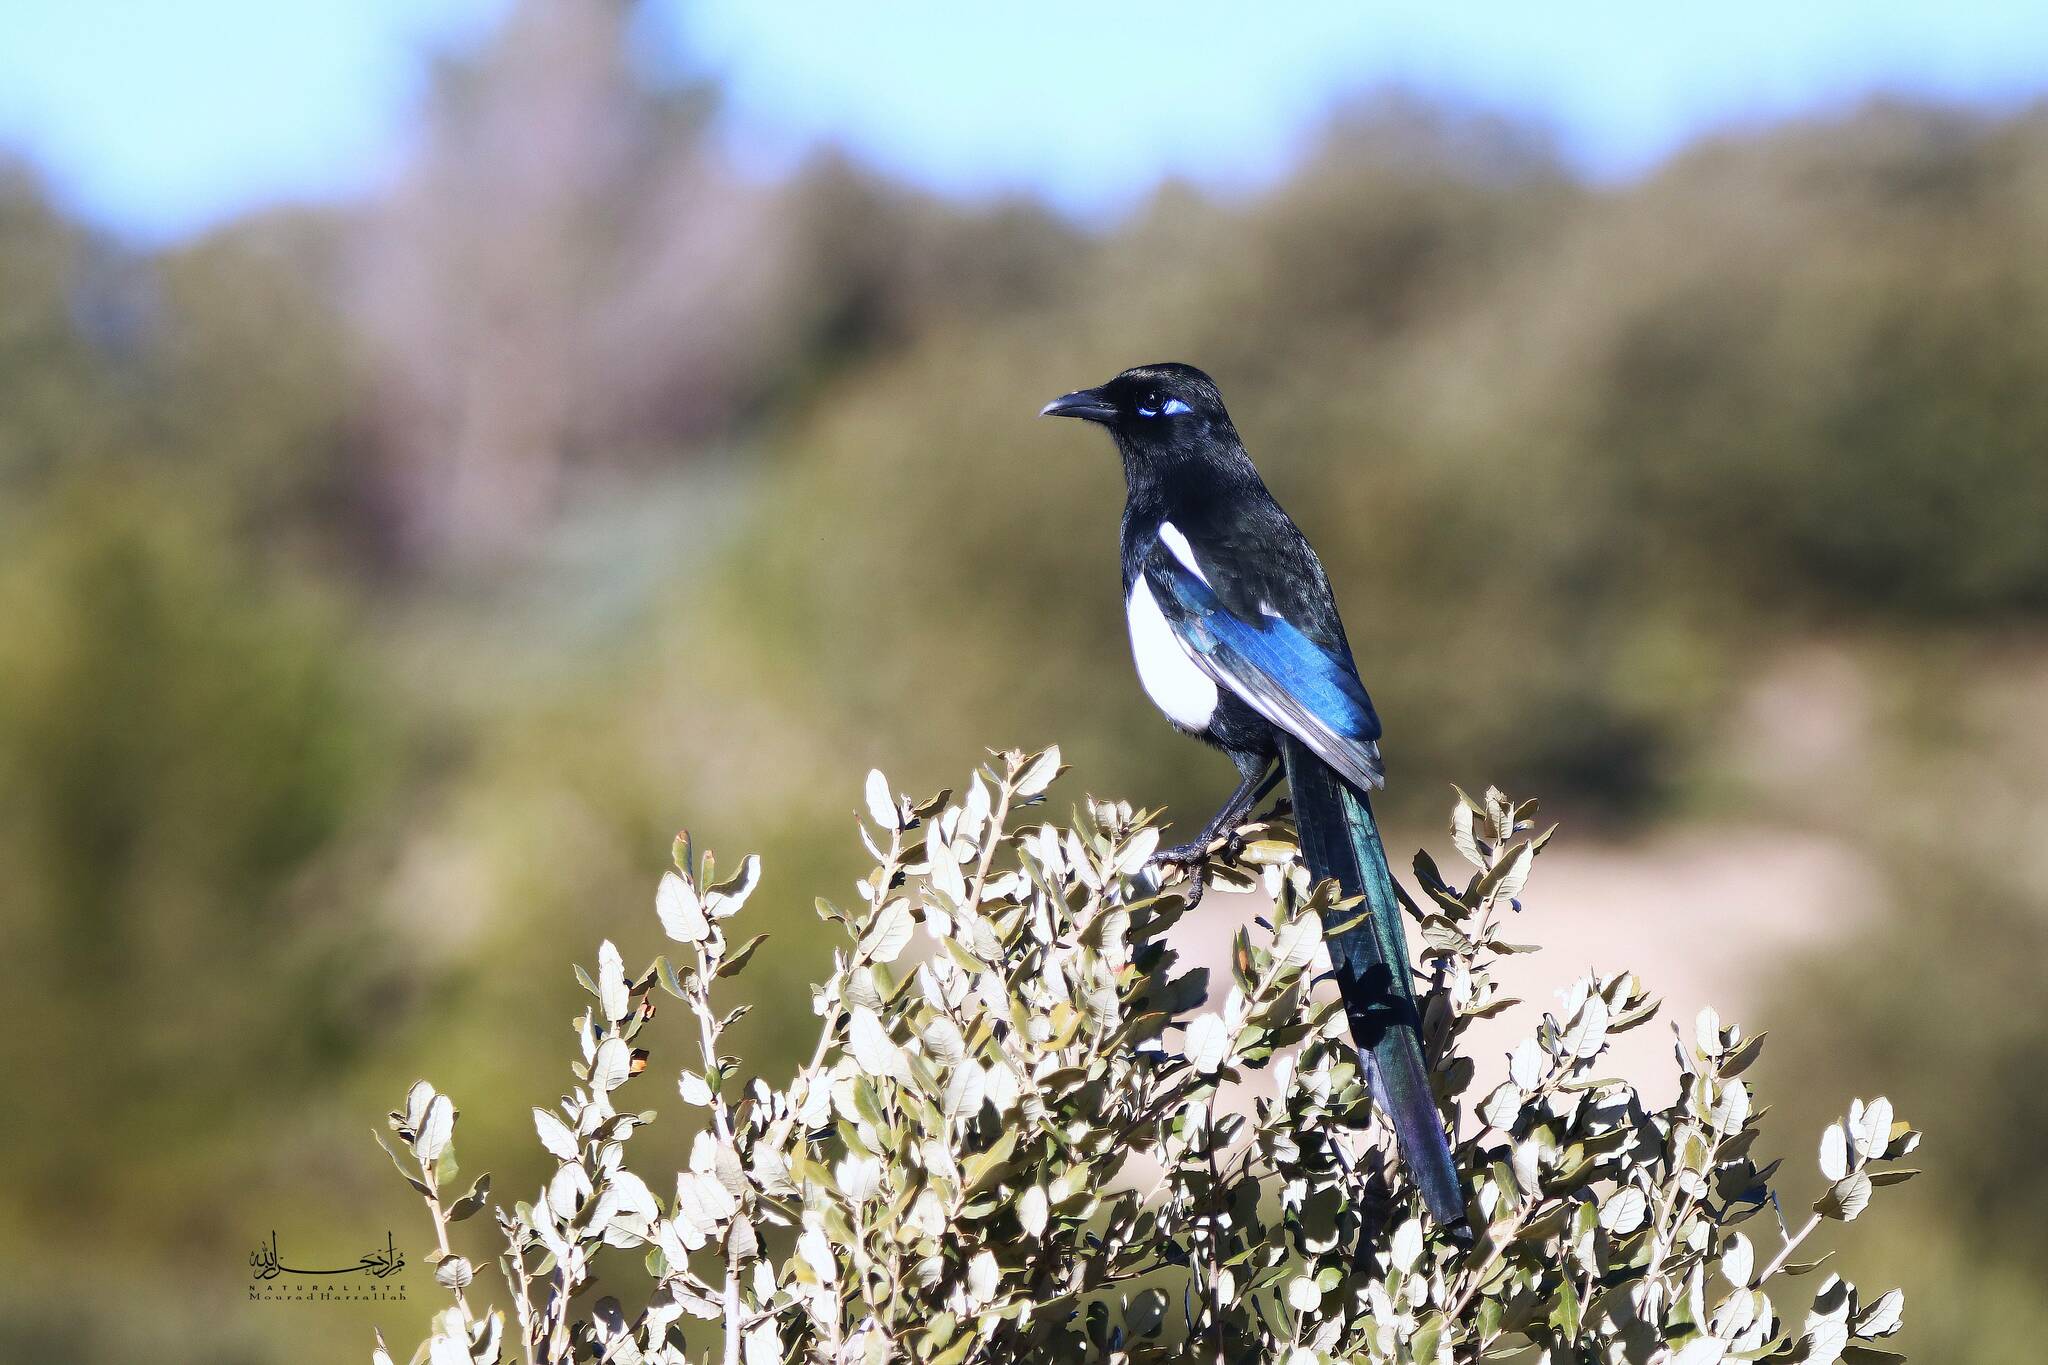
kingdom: Animalia
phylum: Chordata
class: Aves
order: Passeriformes
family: Corvidae
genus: Pica
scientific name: Pica mauritanica
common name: Maghreb magpie
